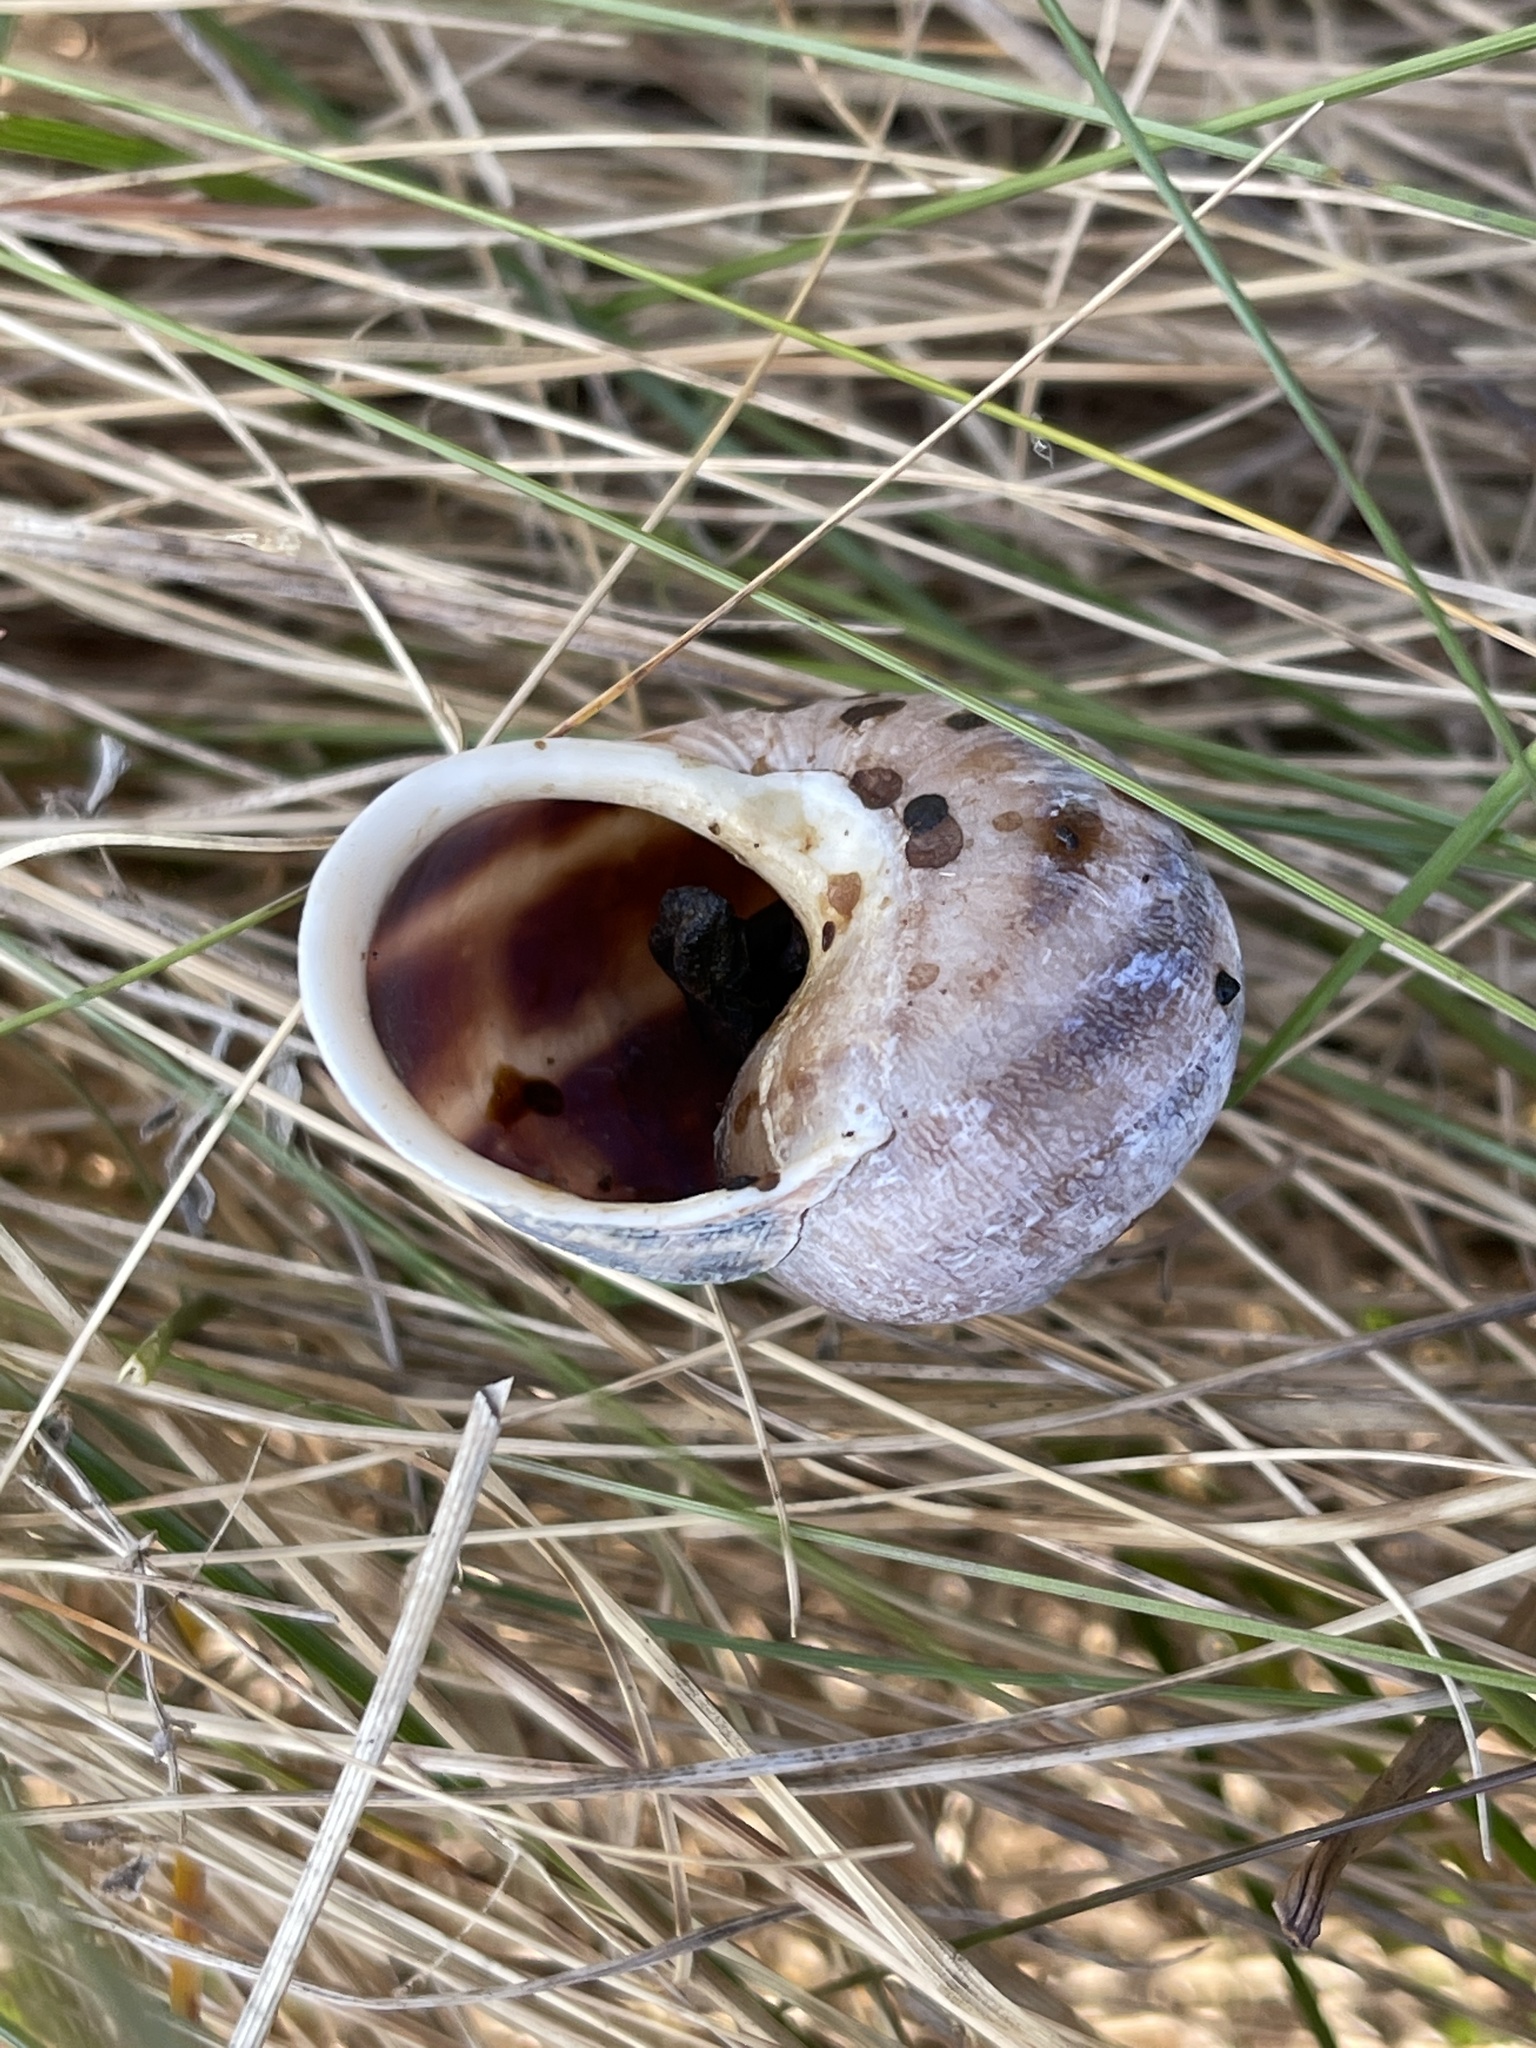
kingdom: Animalia
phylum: Mollusca
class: Gastropoda
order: Stylommatophora
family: Helicidae
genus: Cornu
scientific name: Cornu aspersum
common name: Brown garden snail
